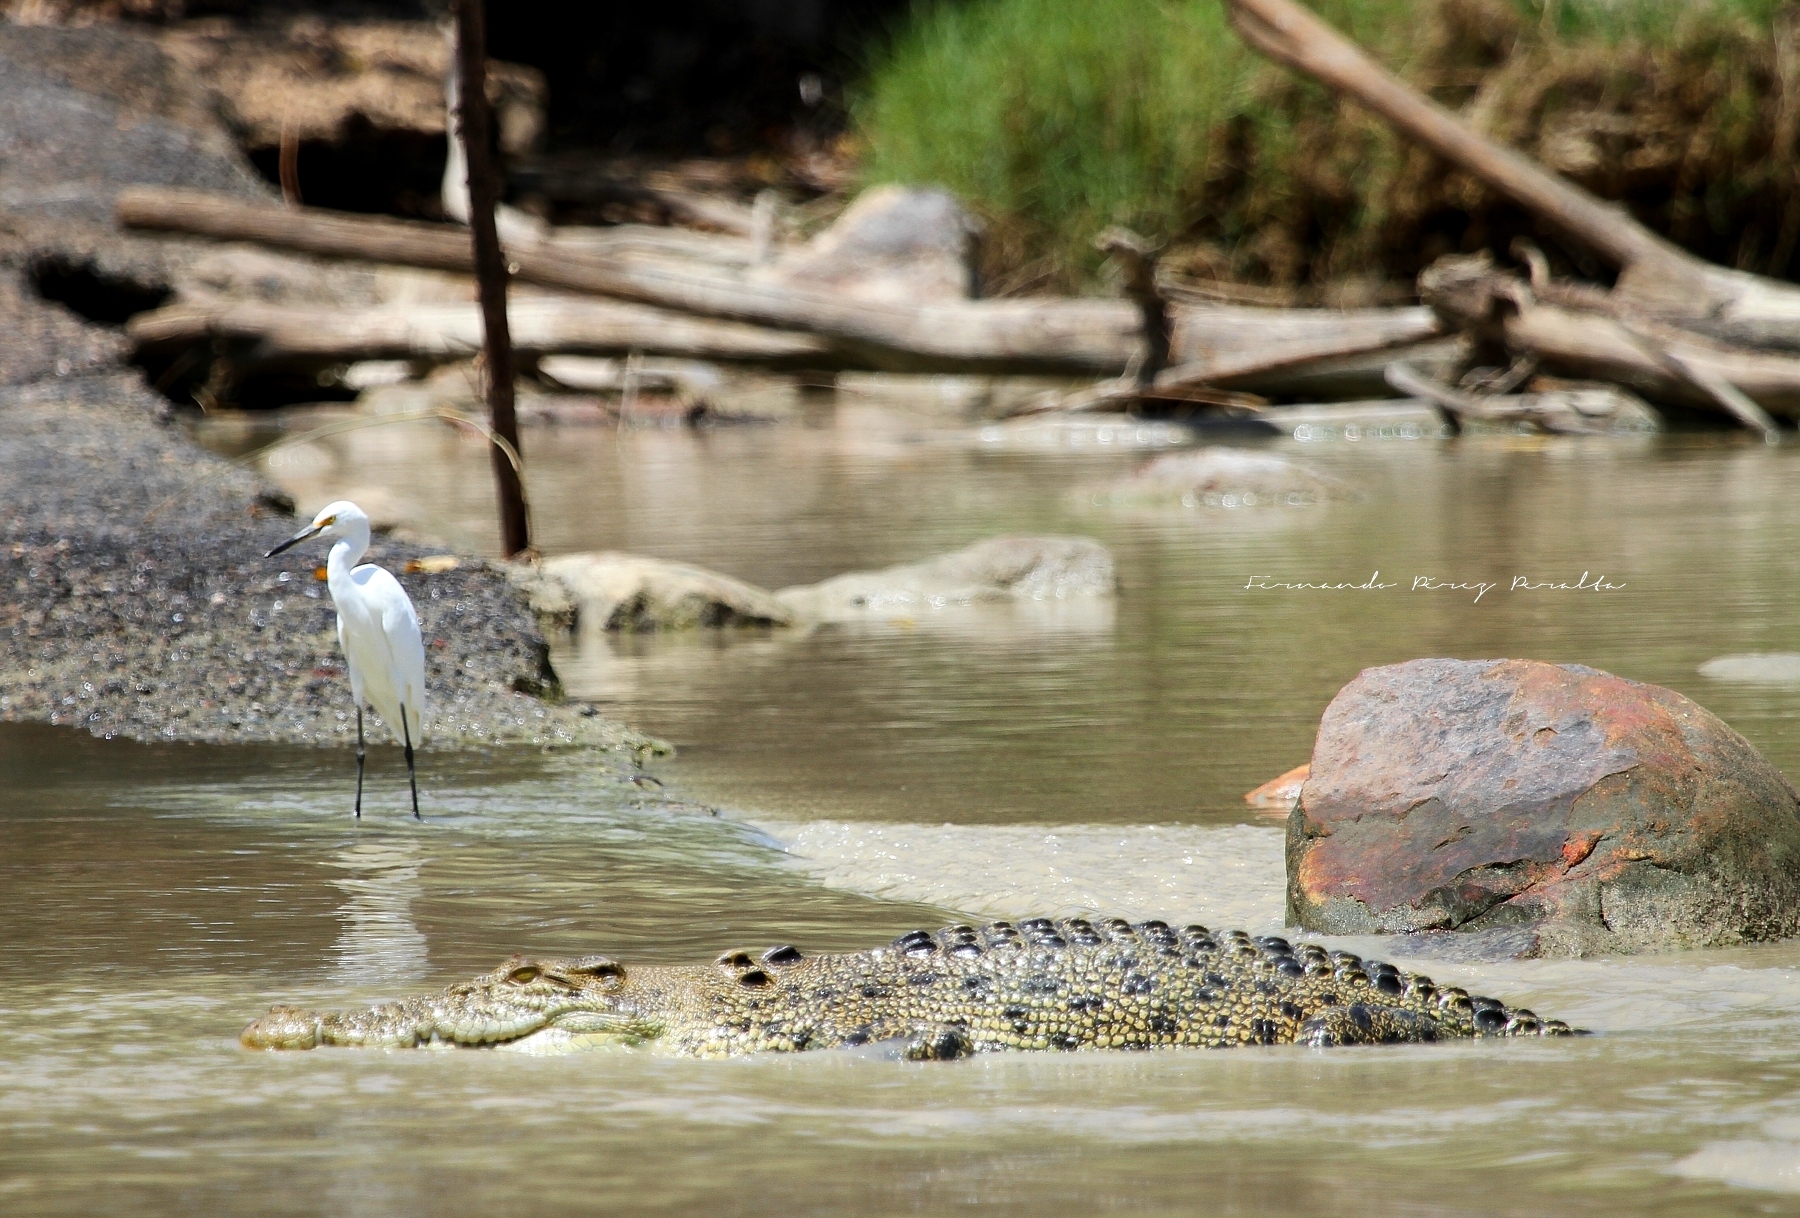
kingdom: Animalia
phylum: Chordata
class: Aves
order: Pelecaniformes
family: Ardeidae
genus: Egretta
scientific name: Egretta garzetta
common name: Little egret
